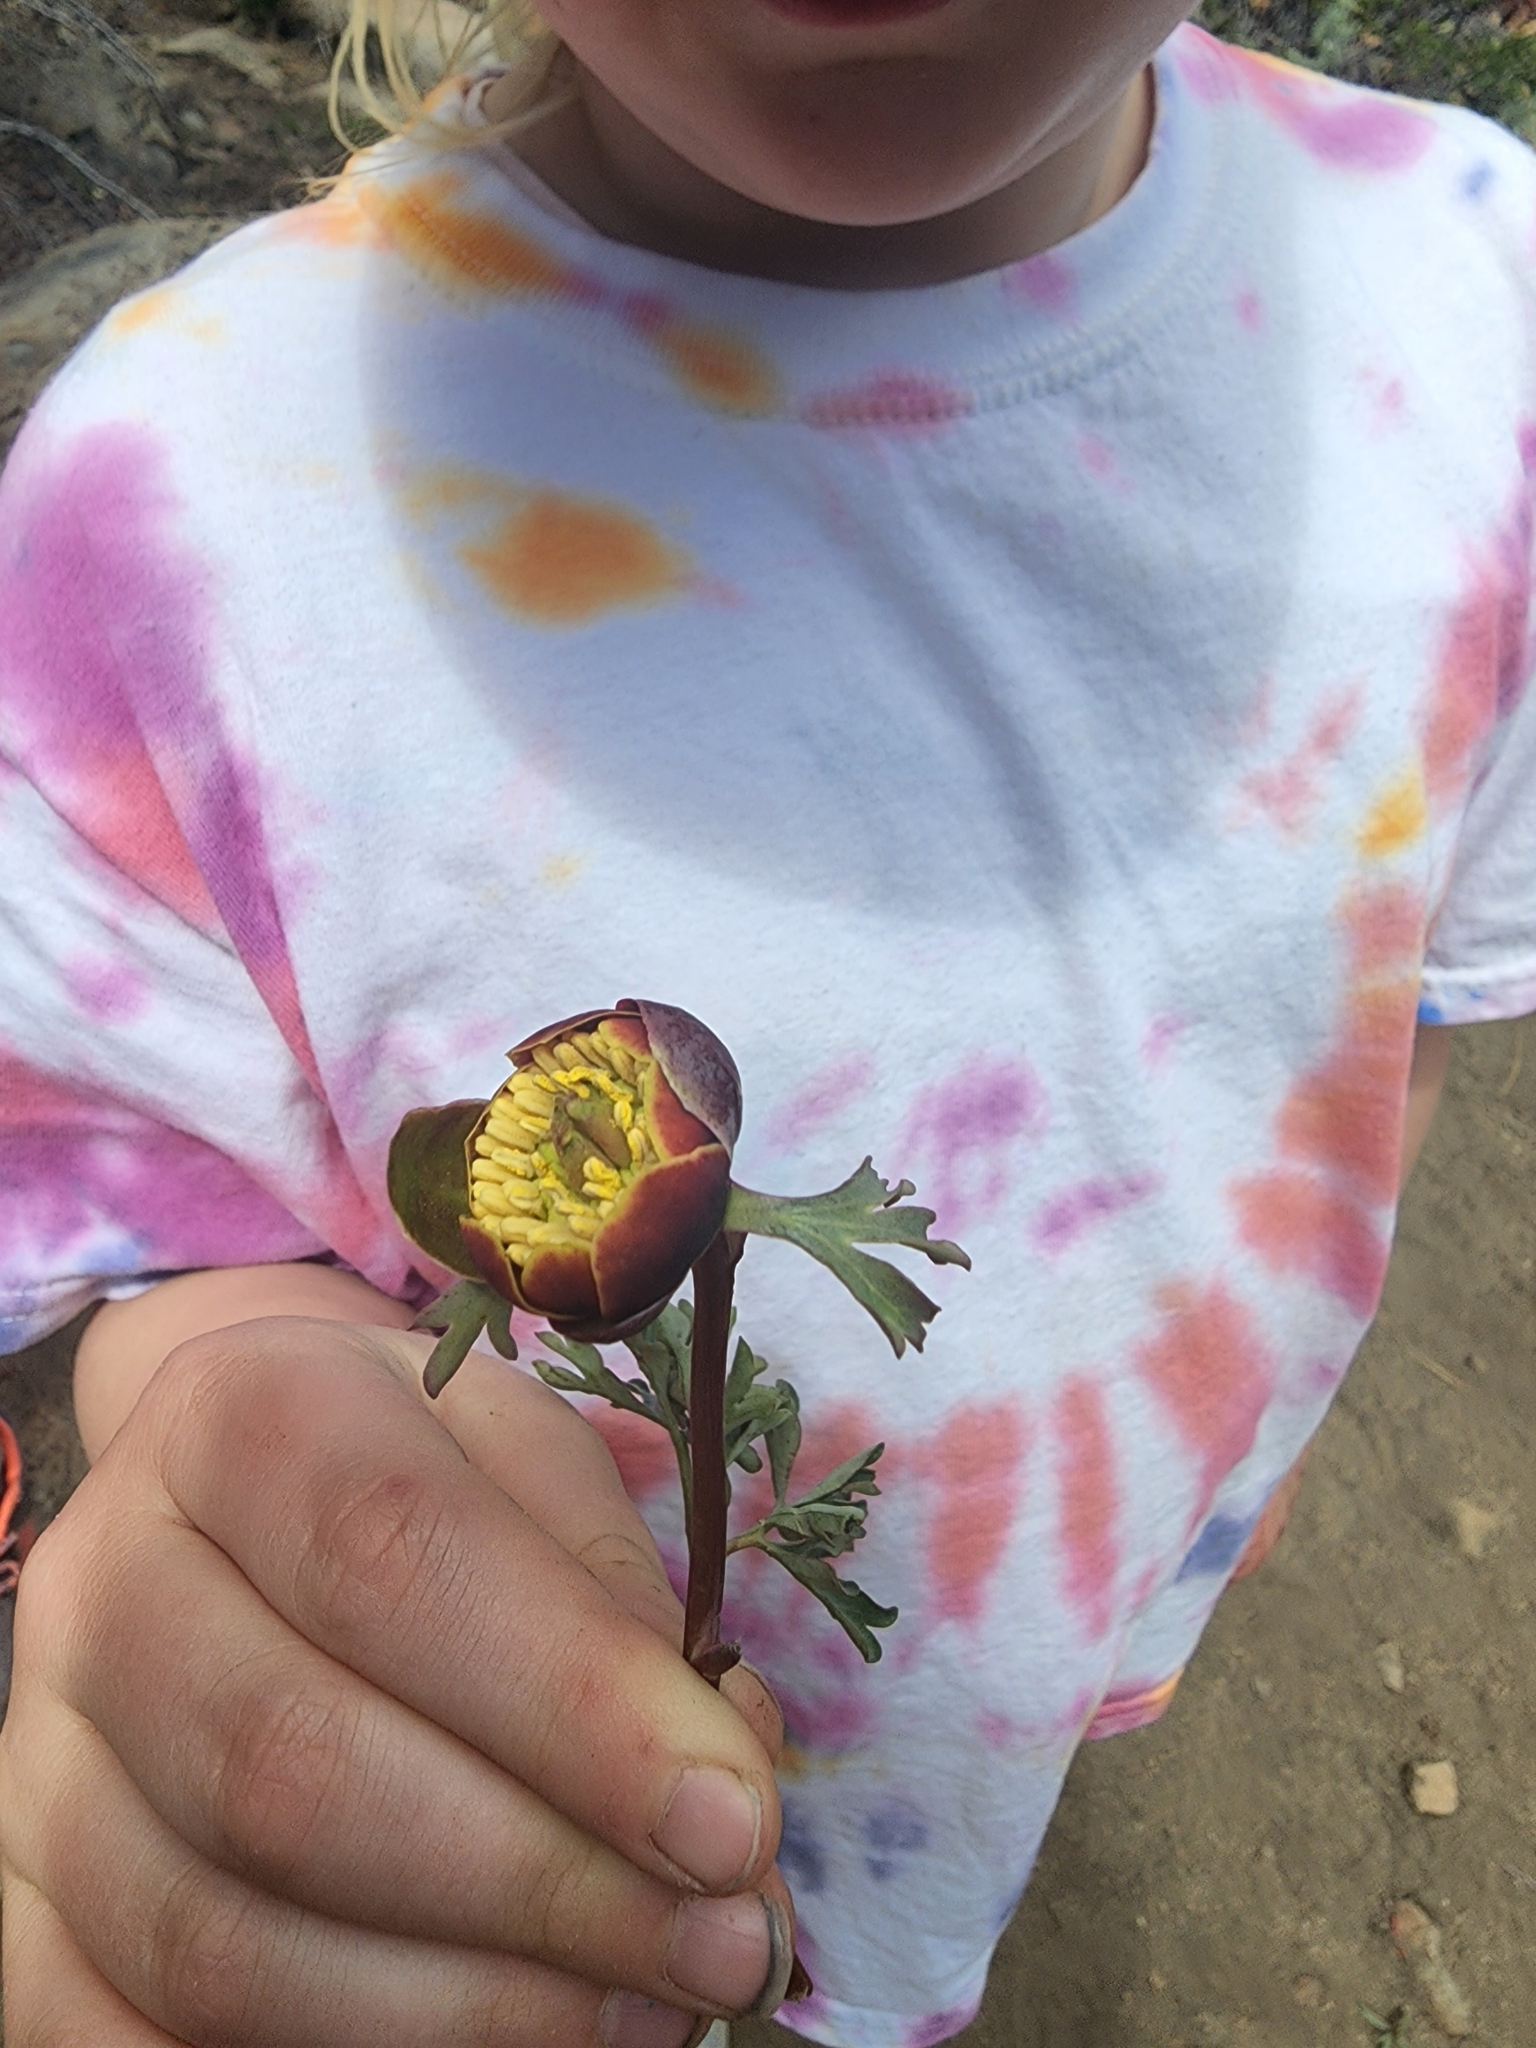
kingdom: Plantae
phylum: Tracheophyta
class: Magnoliopsida
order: Saxifragales
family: Paeoniaceae
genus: Paeonia
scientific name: Paeonia brownii
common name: Brown's peony
